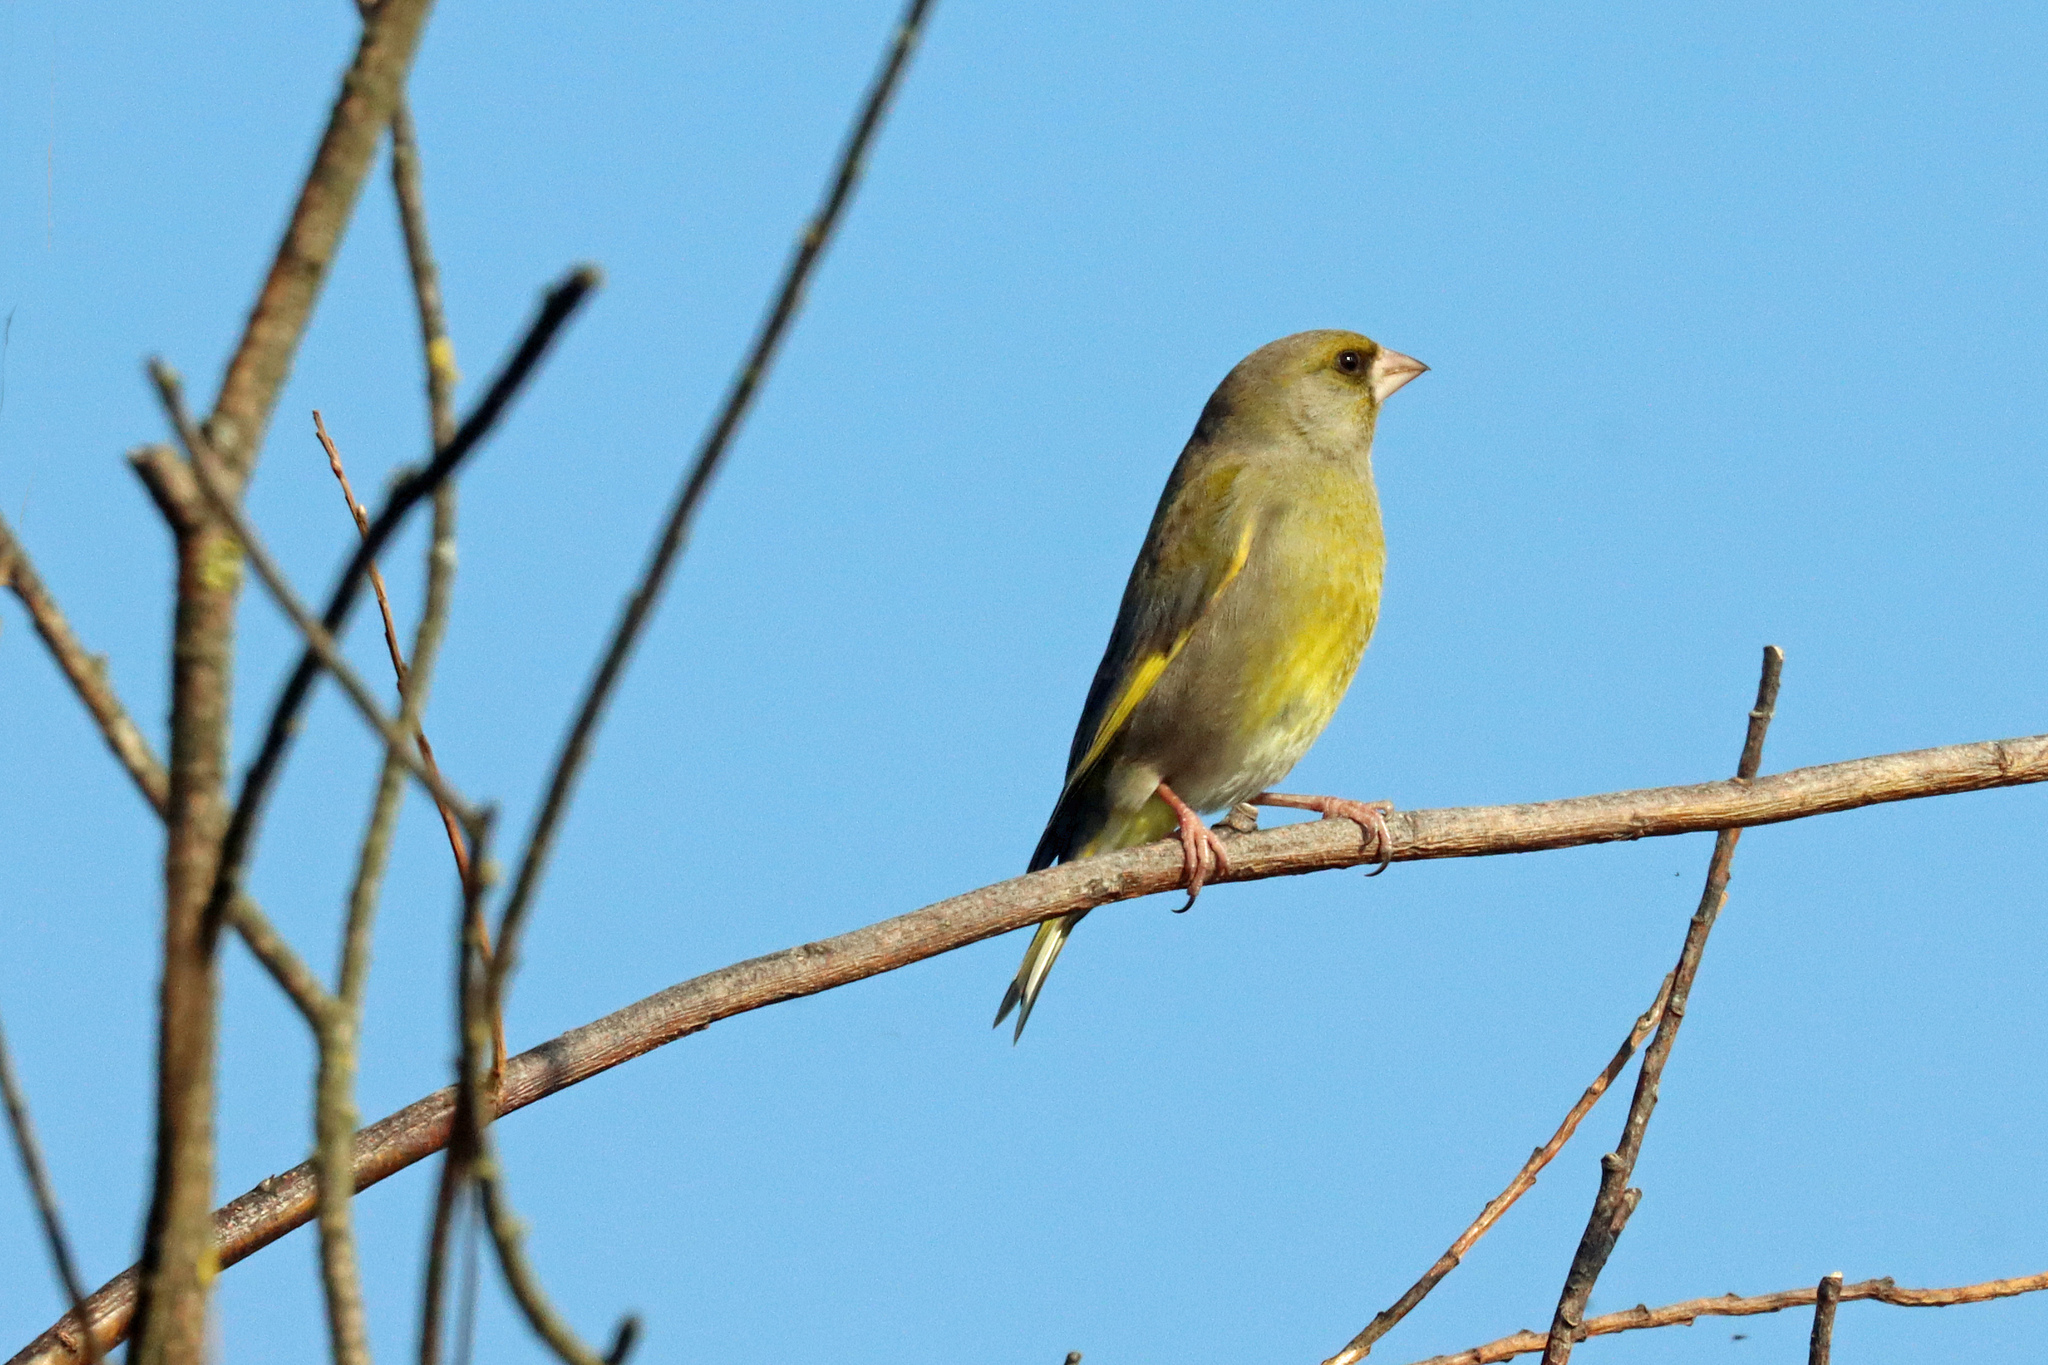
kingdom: Plantae
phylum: Tracheophyta
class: Liliopsida
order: Poales
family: Poaceae
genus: Chloris
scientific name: Chloris chloris
